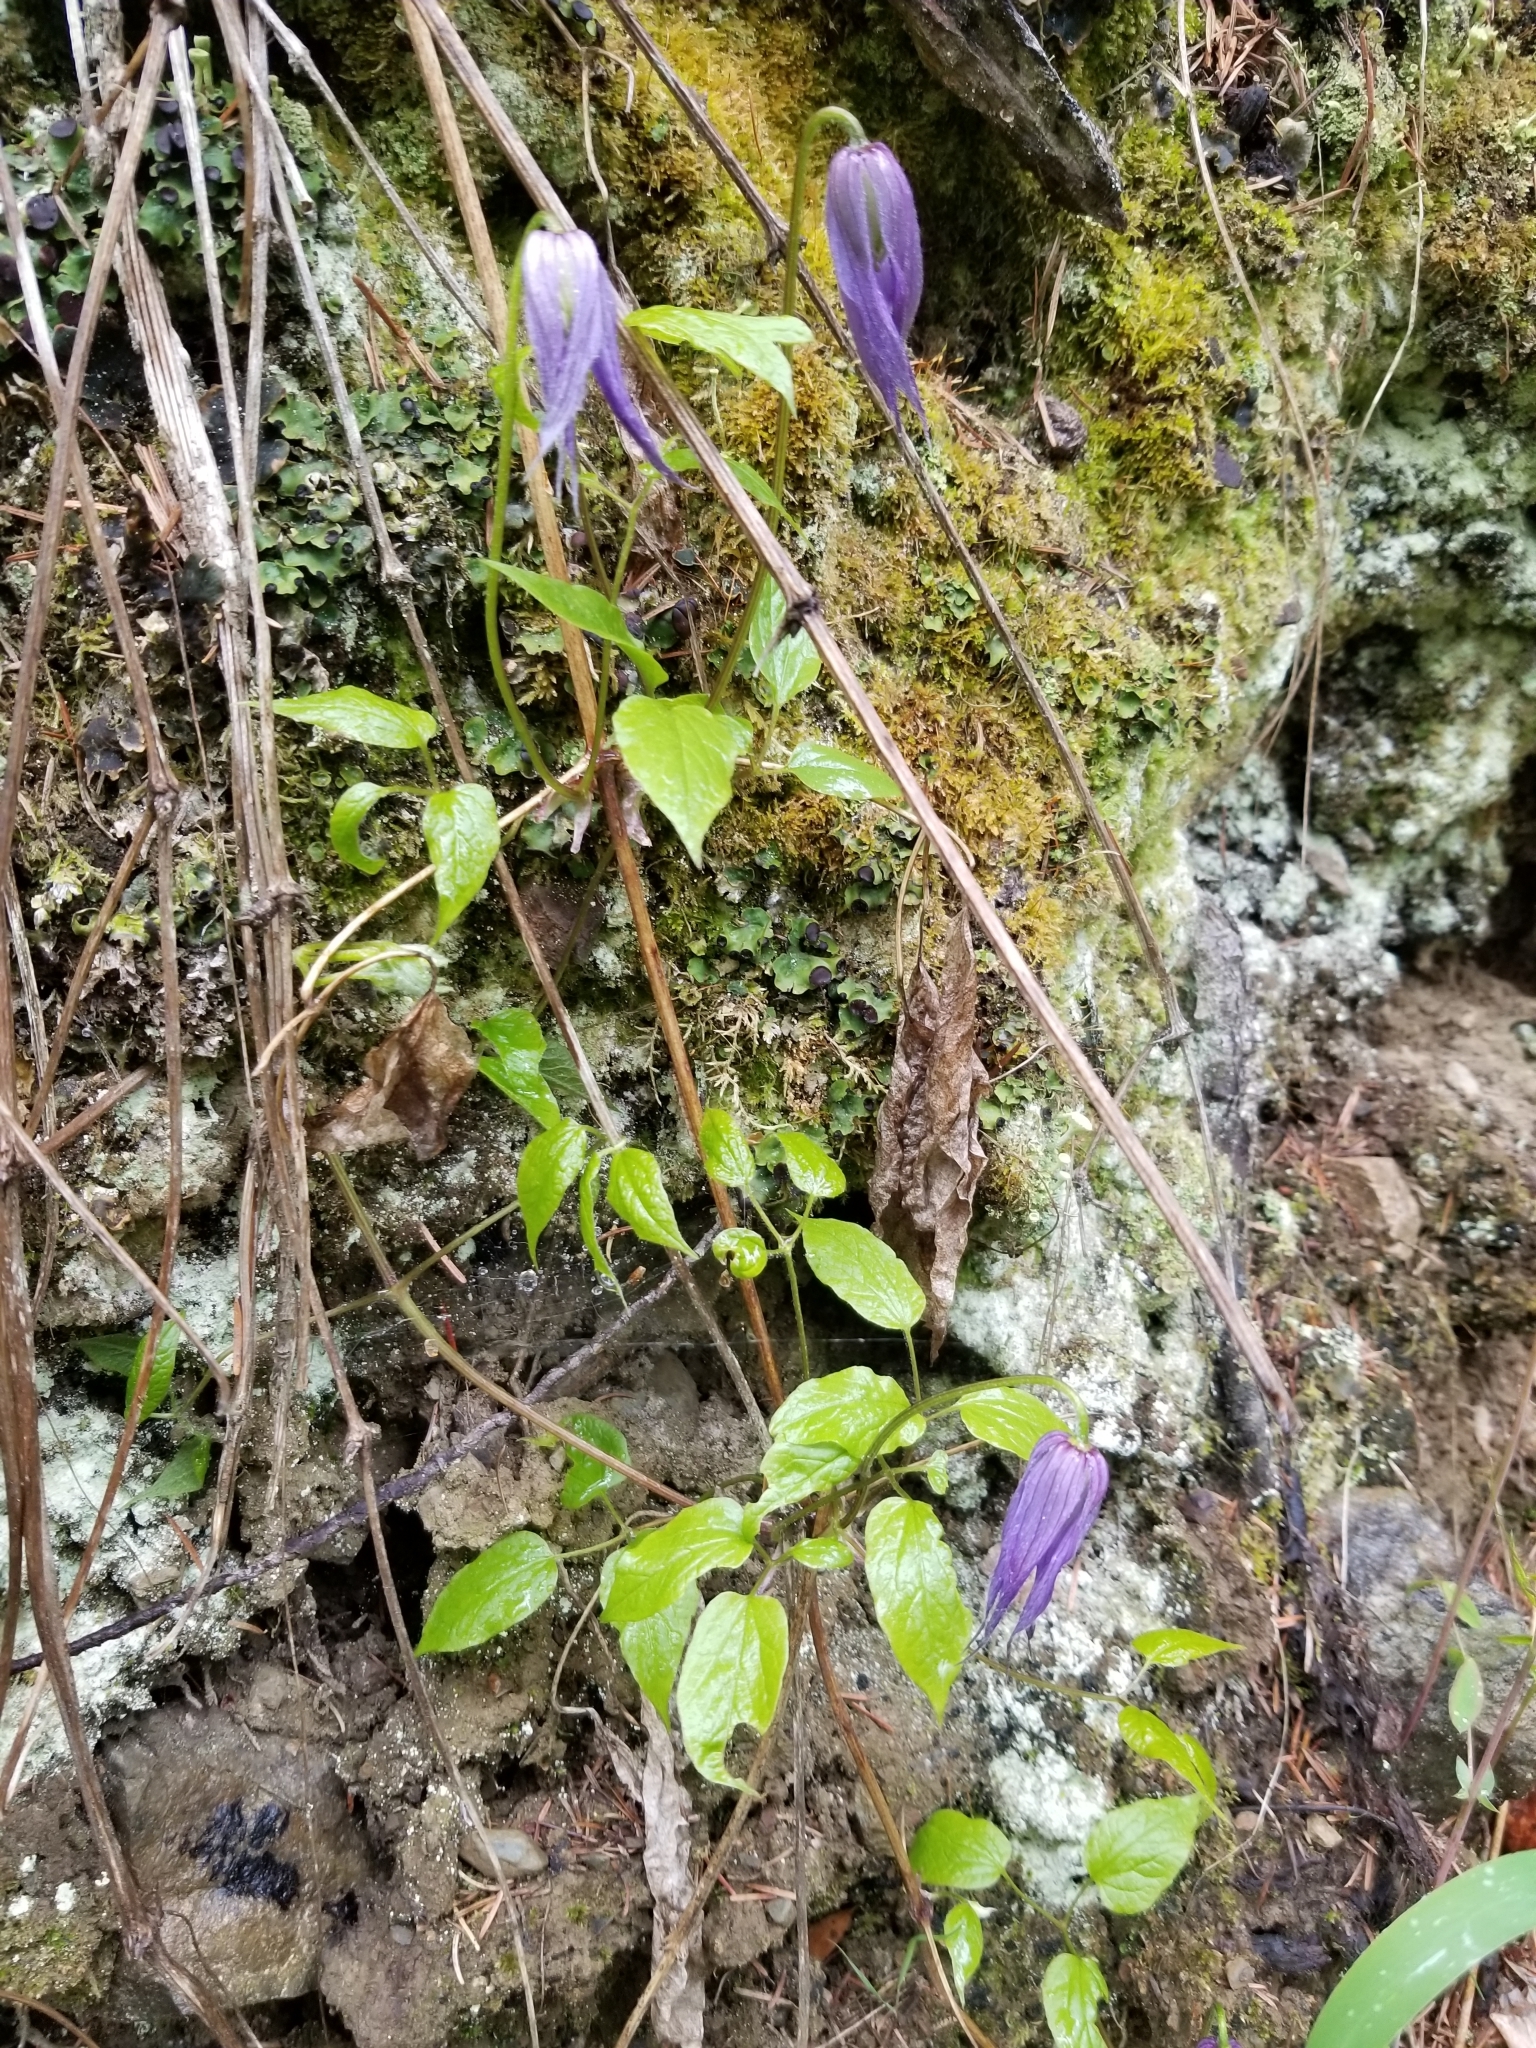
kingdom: Plantae
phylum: Tracheophyta
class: Magnoliopsida
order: Ranunculales
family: Ranunculaceae
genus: Clematis
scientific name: Clematis occidentalis
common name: Purple clematis
